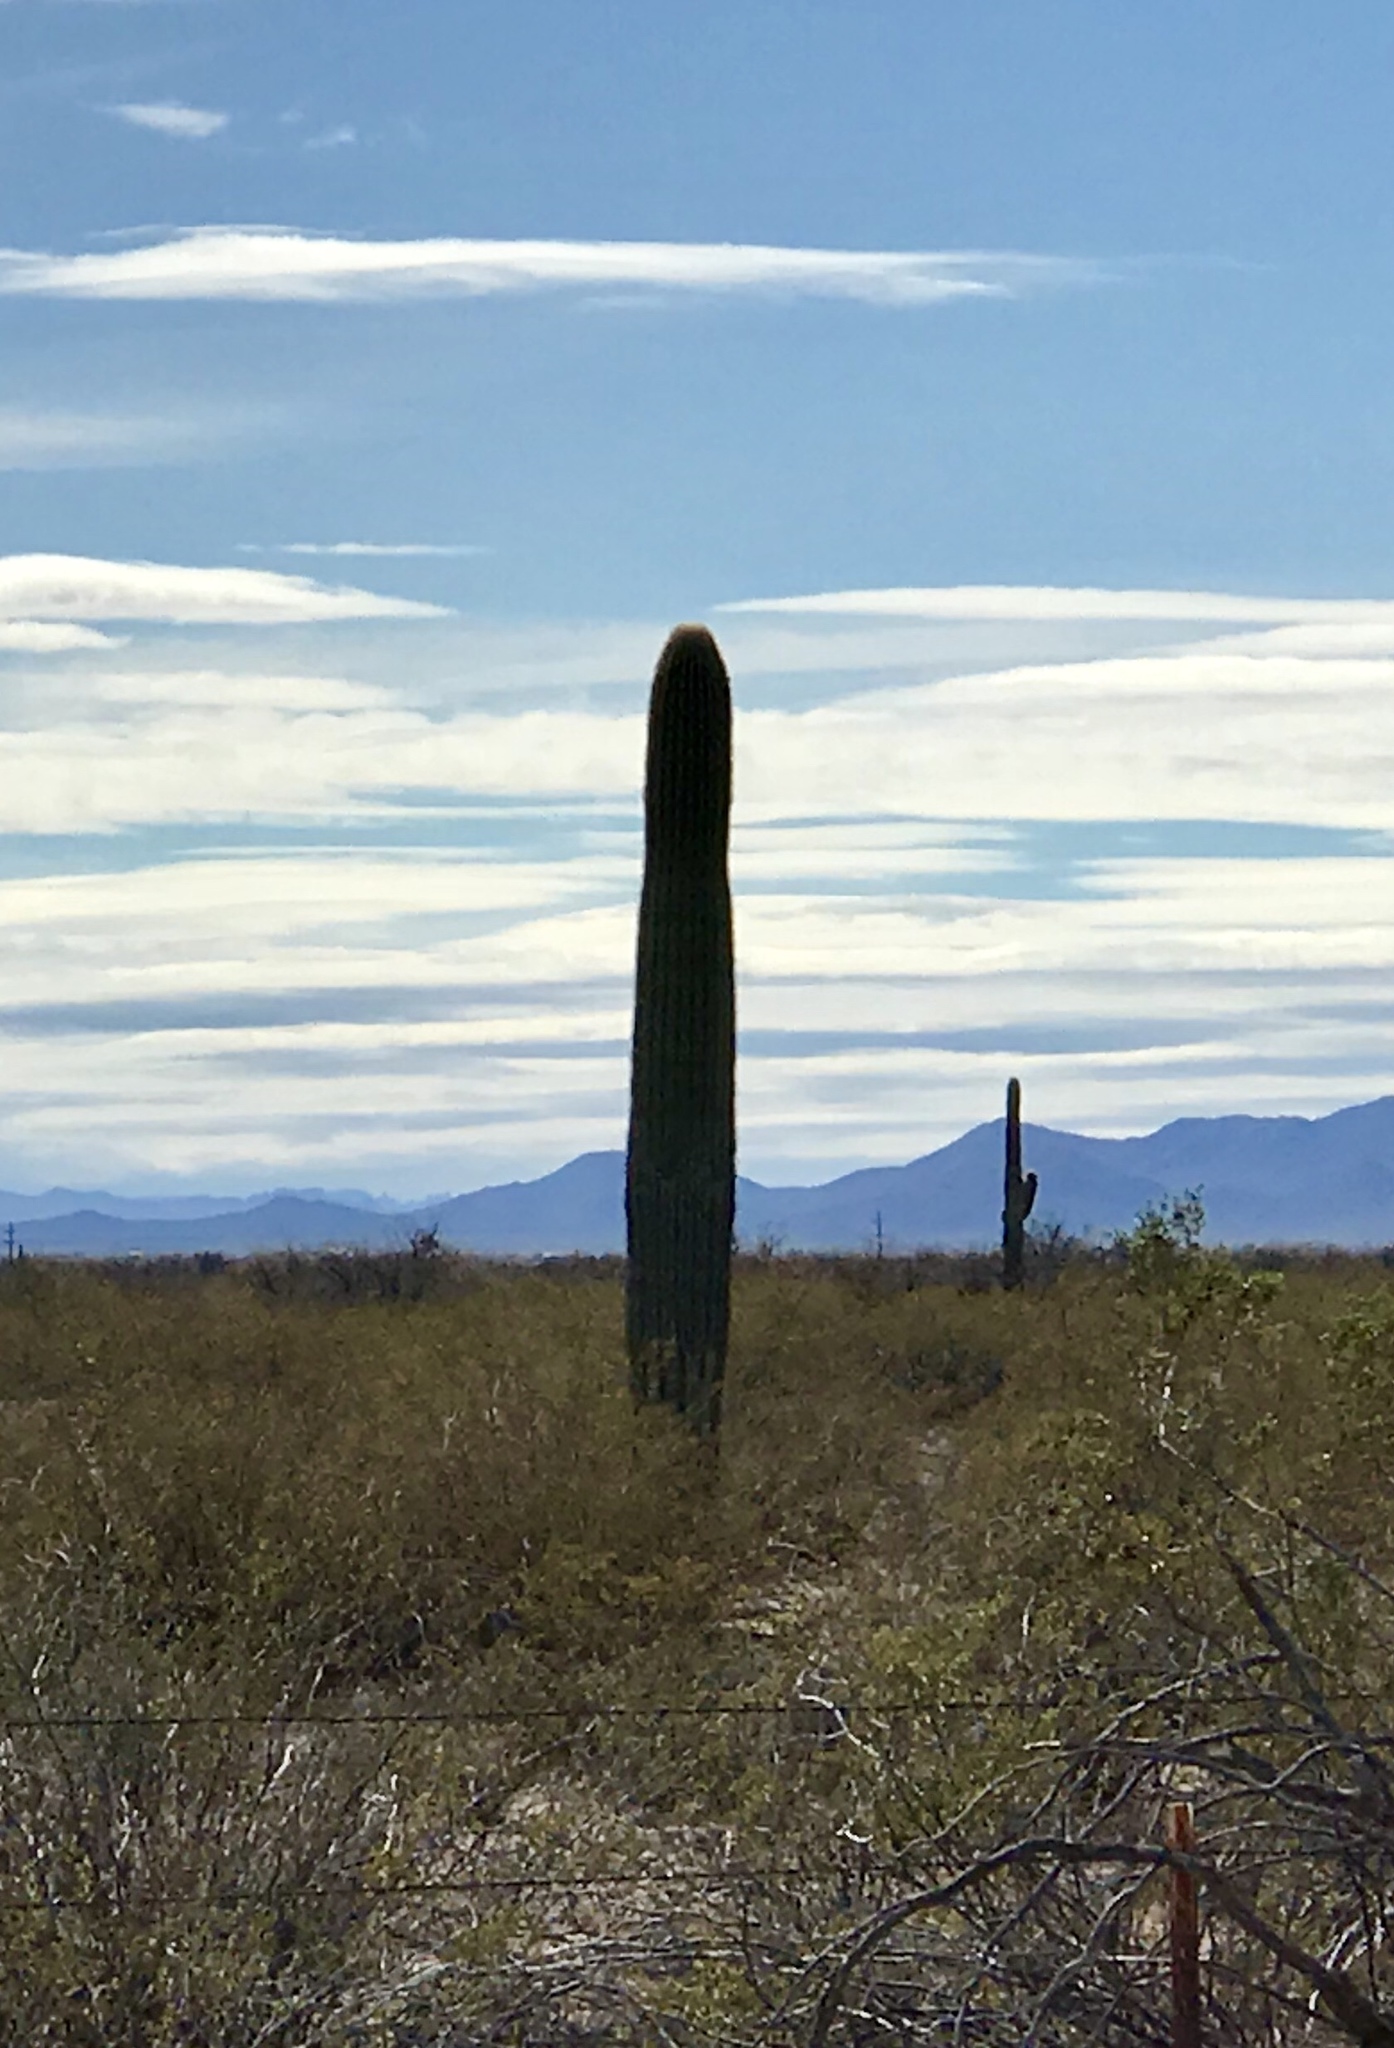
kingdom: Plantae
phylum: Tracheophyta
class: Magnoliopsida
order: Caryophyllales
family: Cactaceae
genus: Carnegiea
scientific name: Carnegiea gigantea
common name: Saguaro
